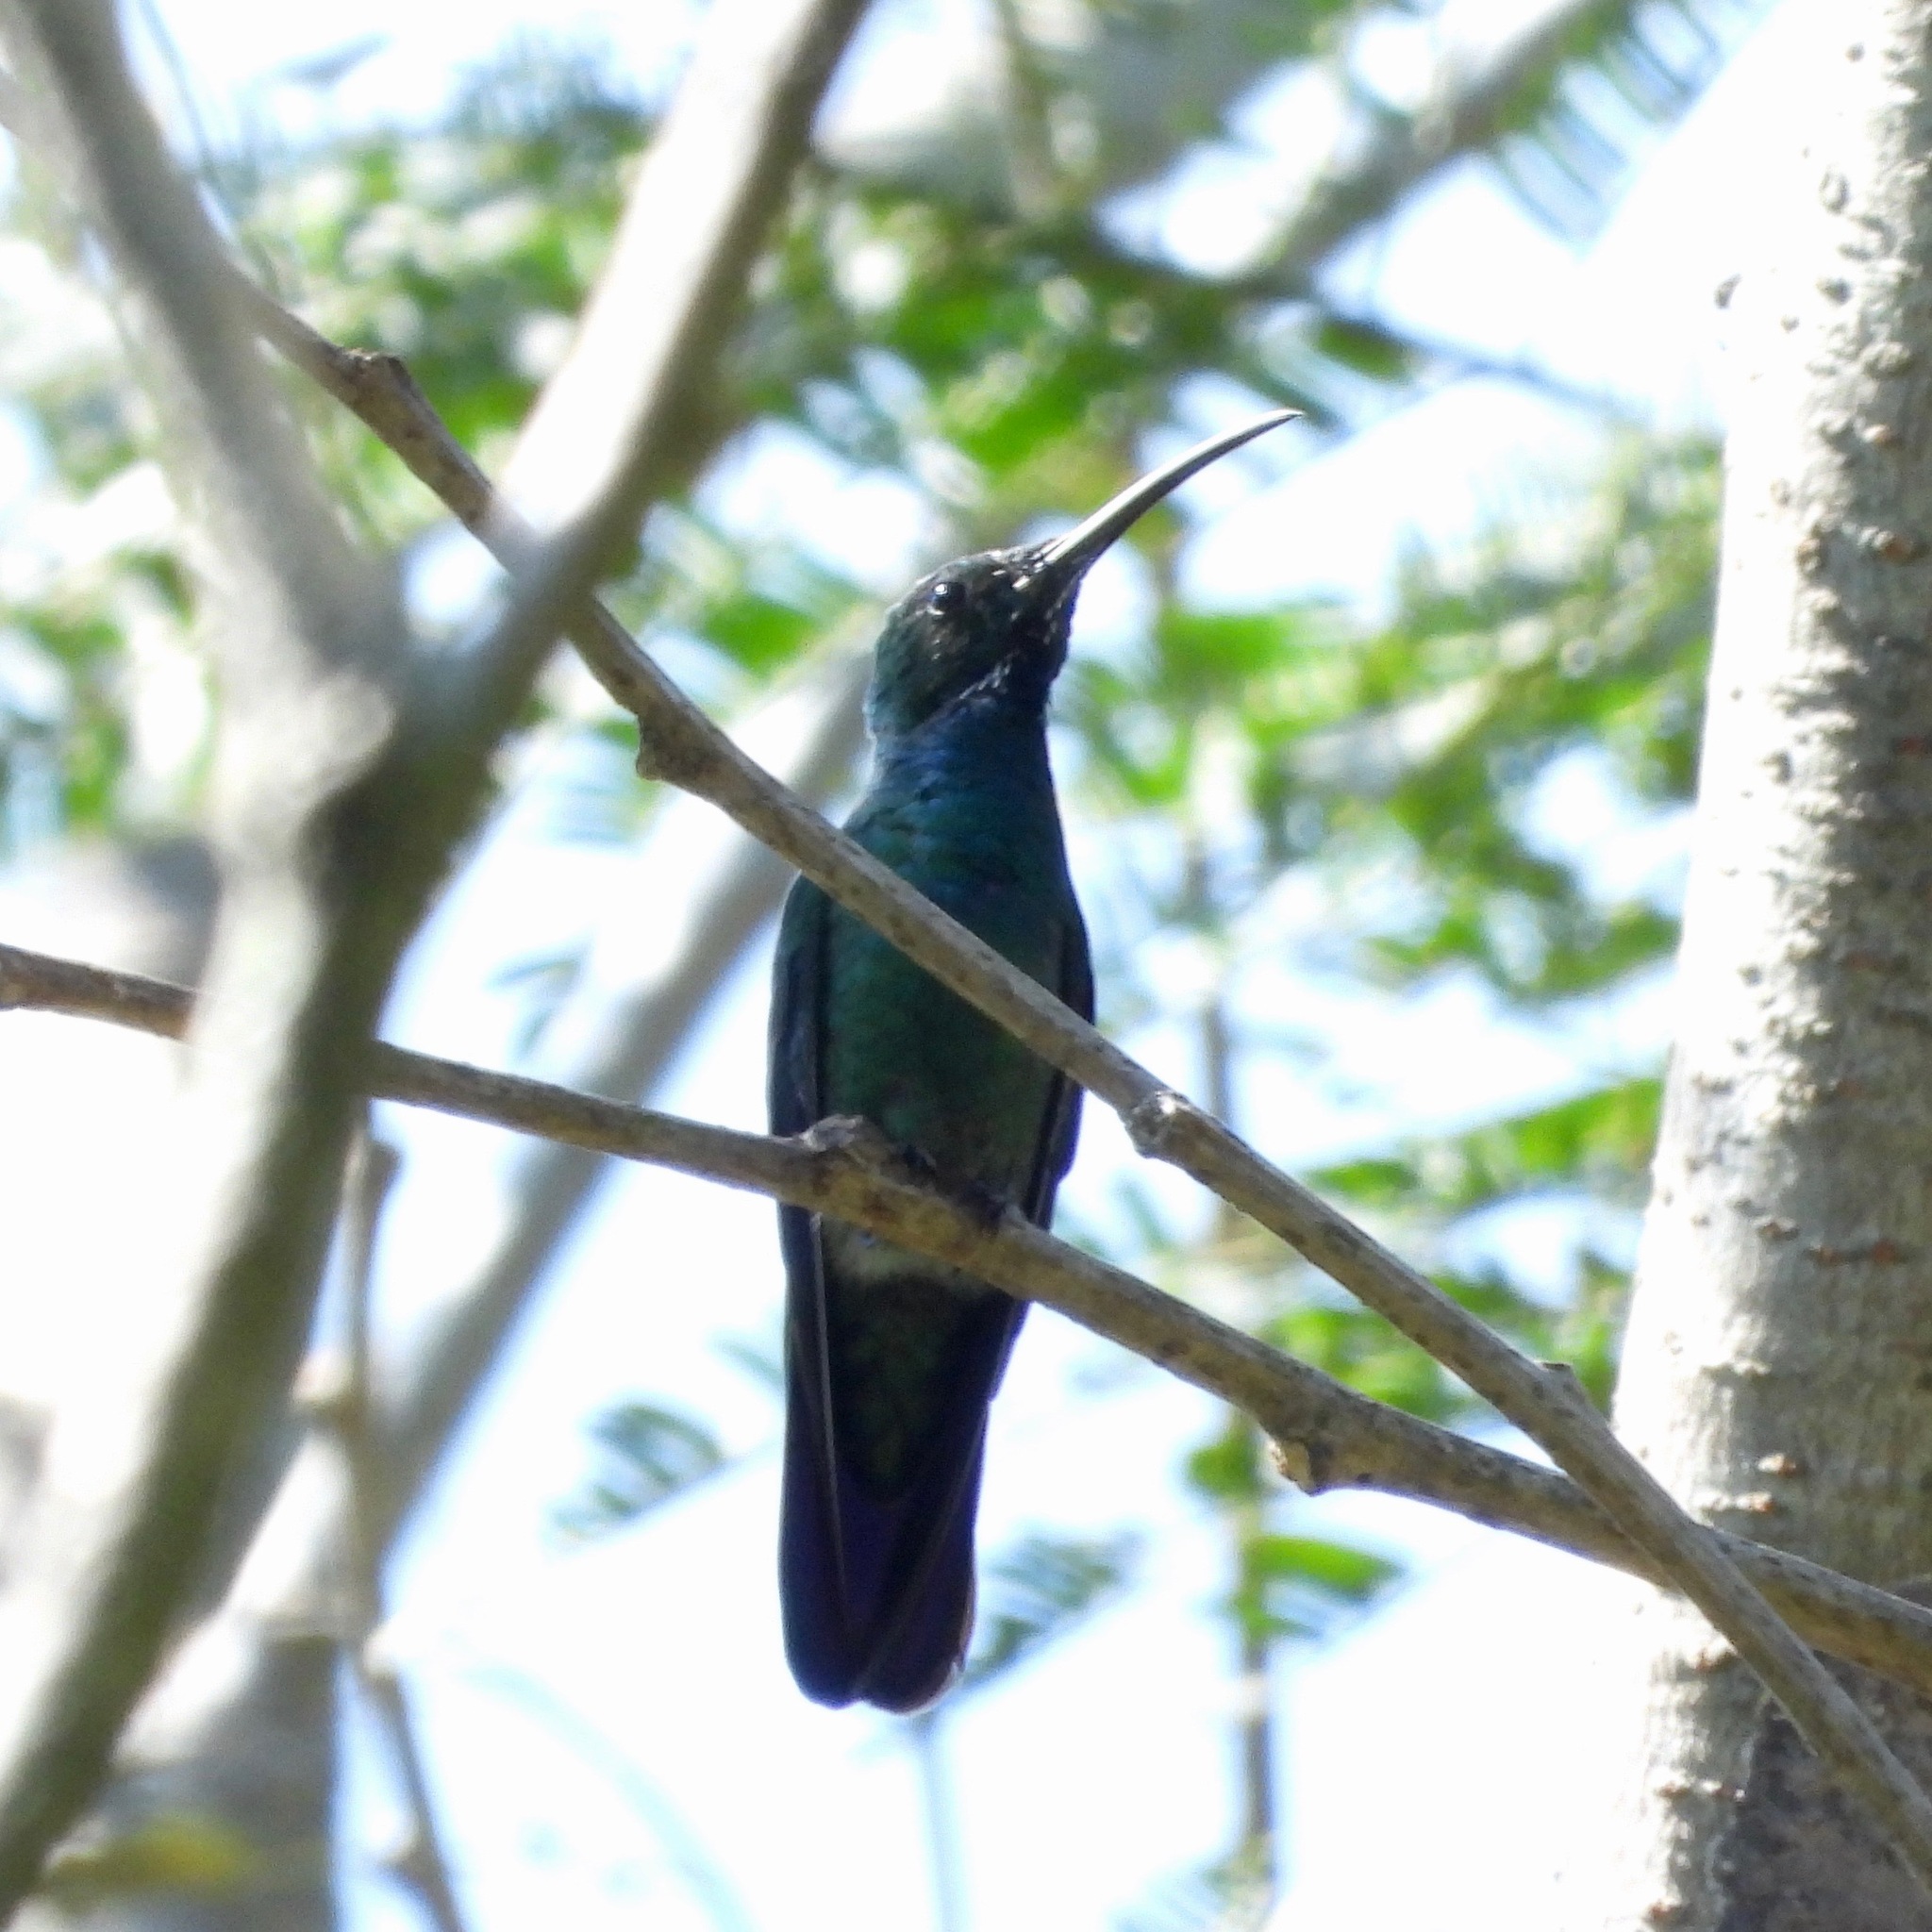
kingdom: Animalia
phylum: Chordata
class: Aves
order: Apodiformes
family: Trochilidae
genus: Anthracothorax
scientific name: Anthracothorax prevostii
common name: Green-breasted mango
